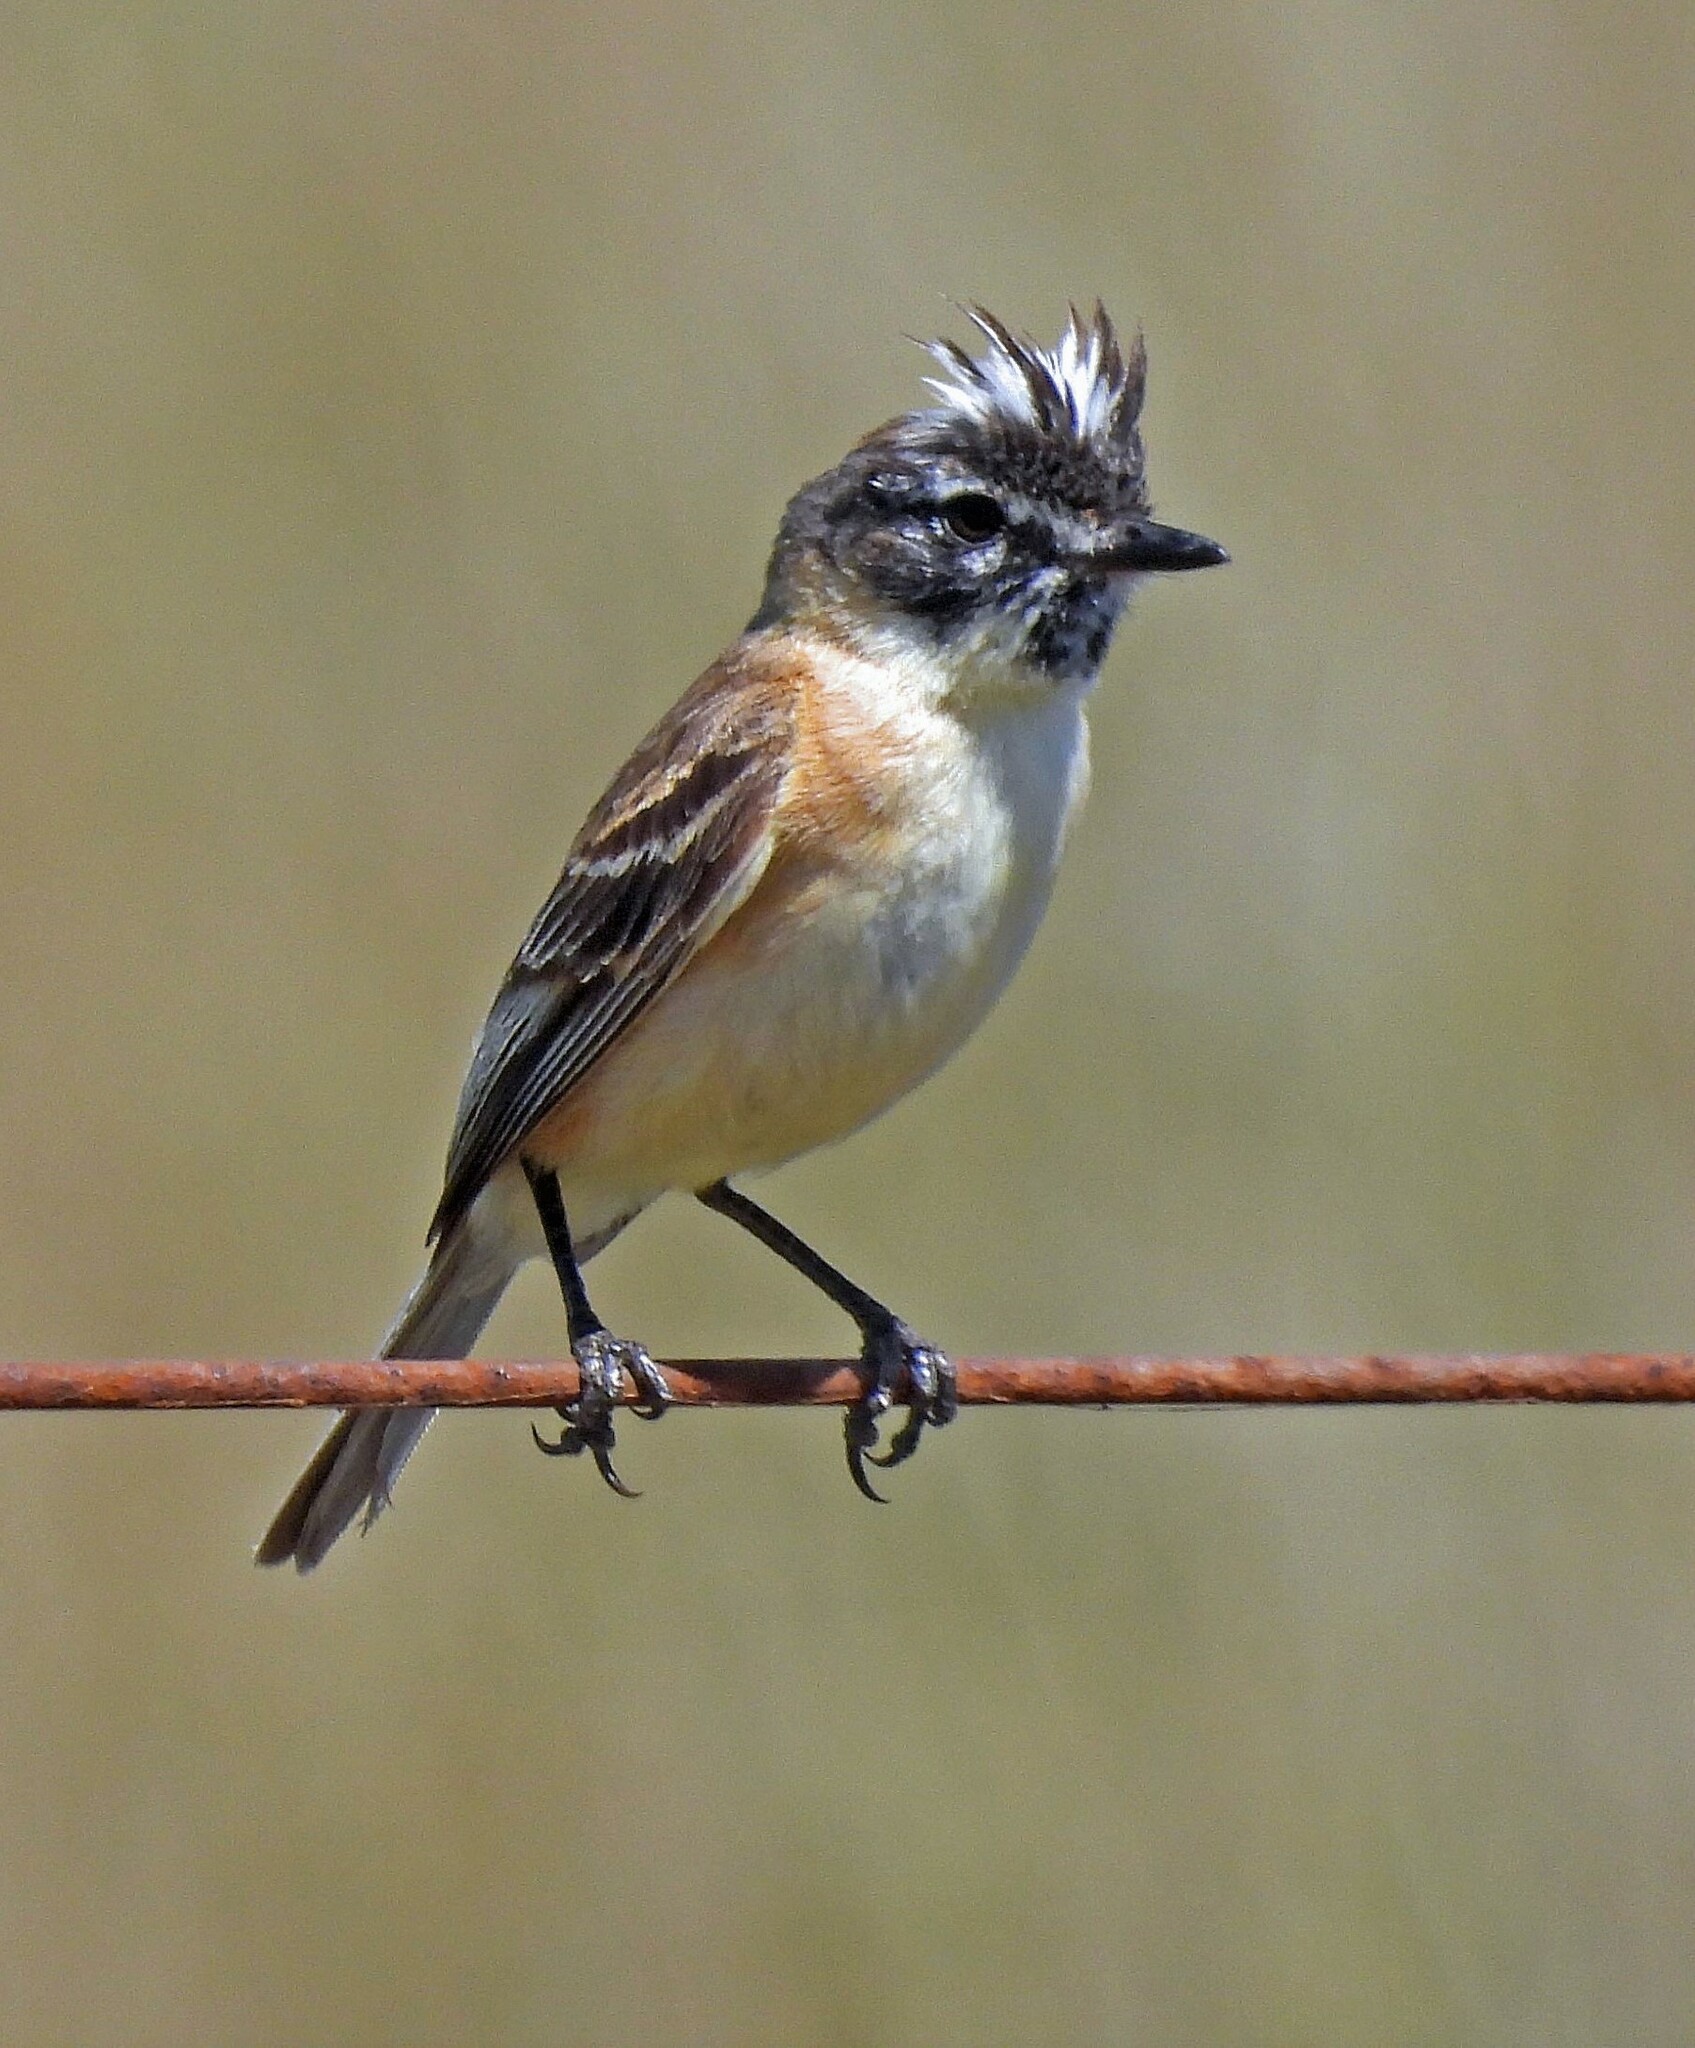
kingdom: Animalia
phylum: Chordata
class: Aves
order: Passeriformes
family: Tyrannidae
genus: Polystictus
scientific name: Polystictus pectoralis
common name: Bearded tachuri
